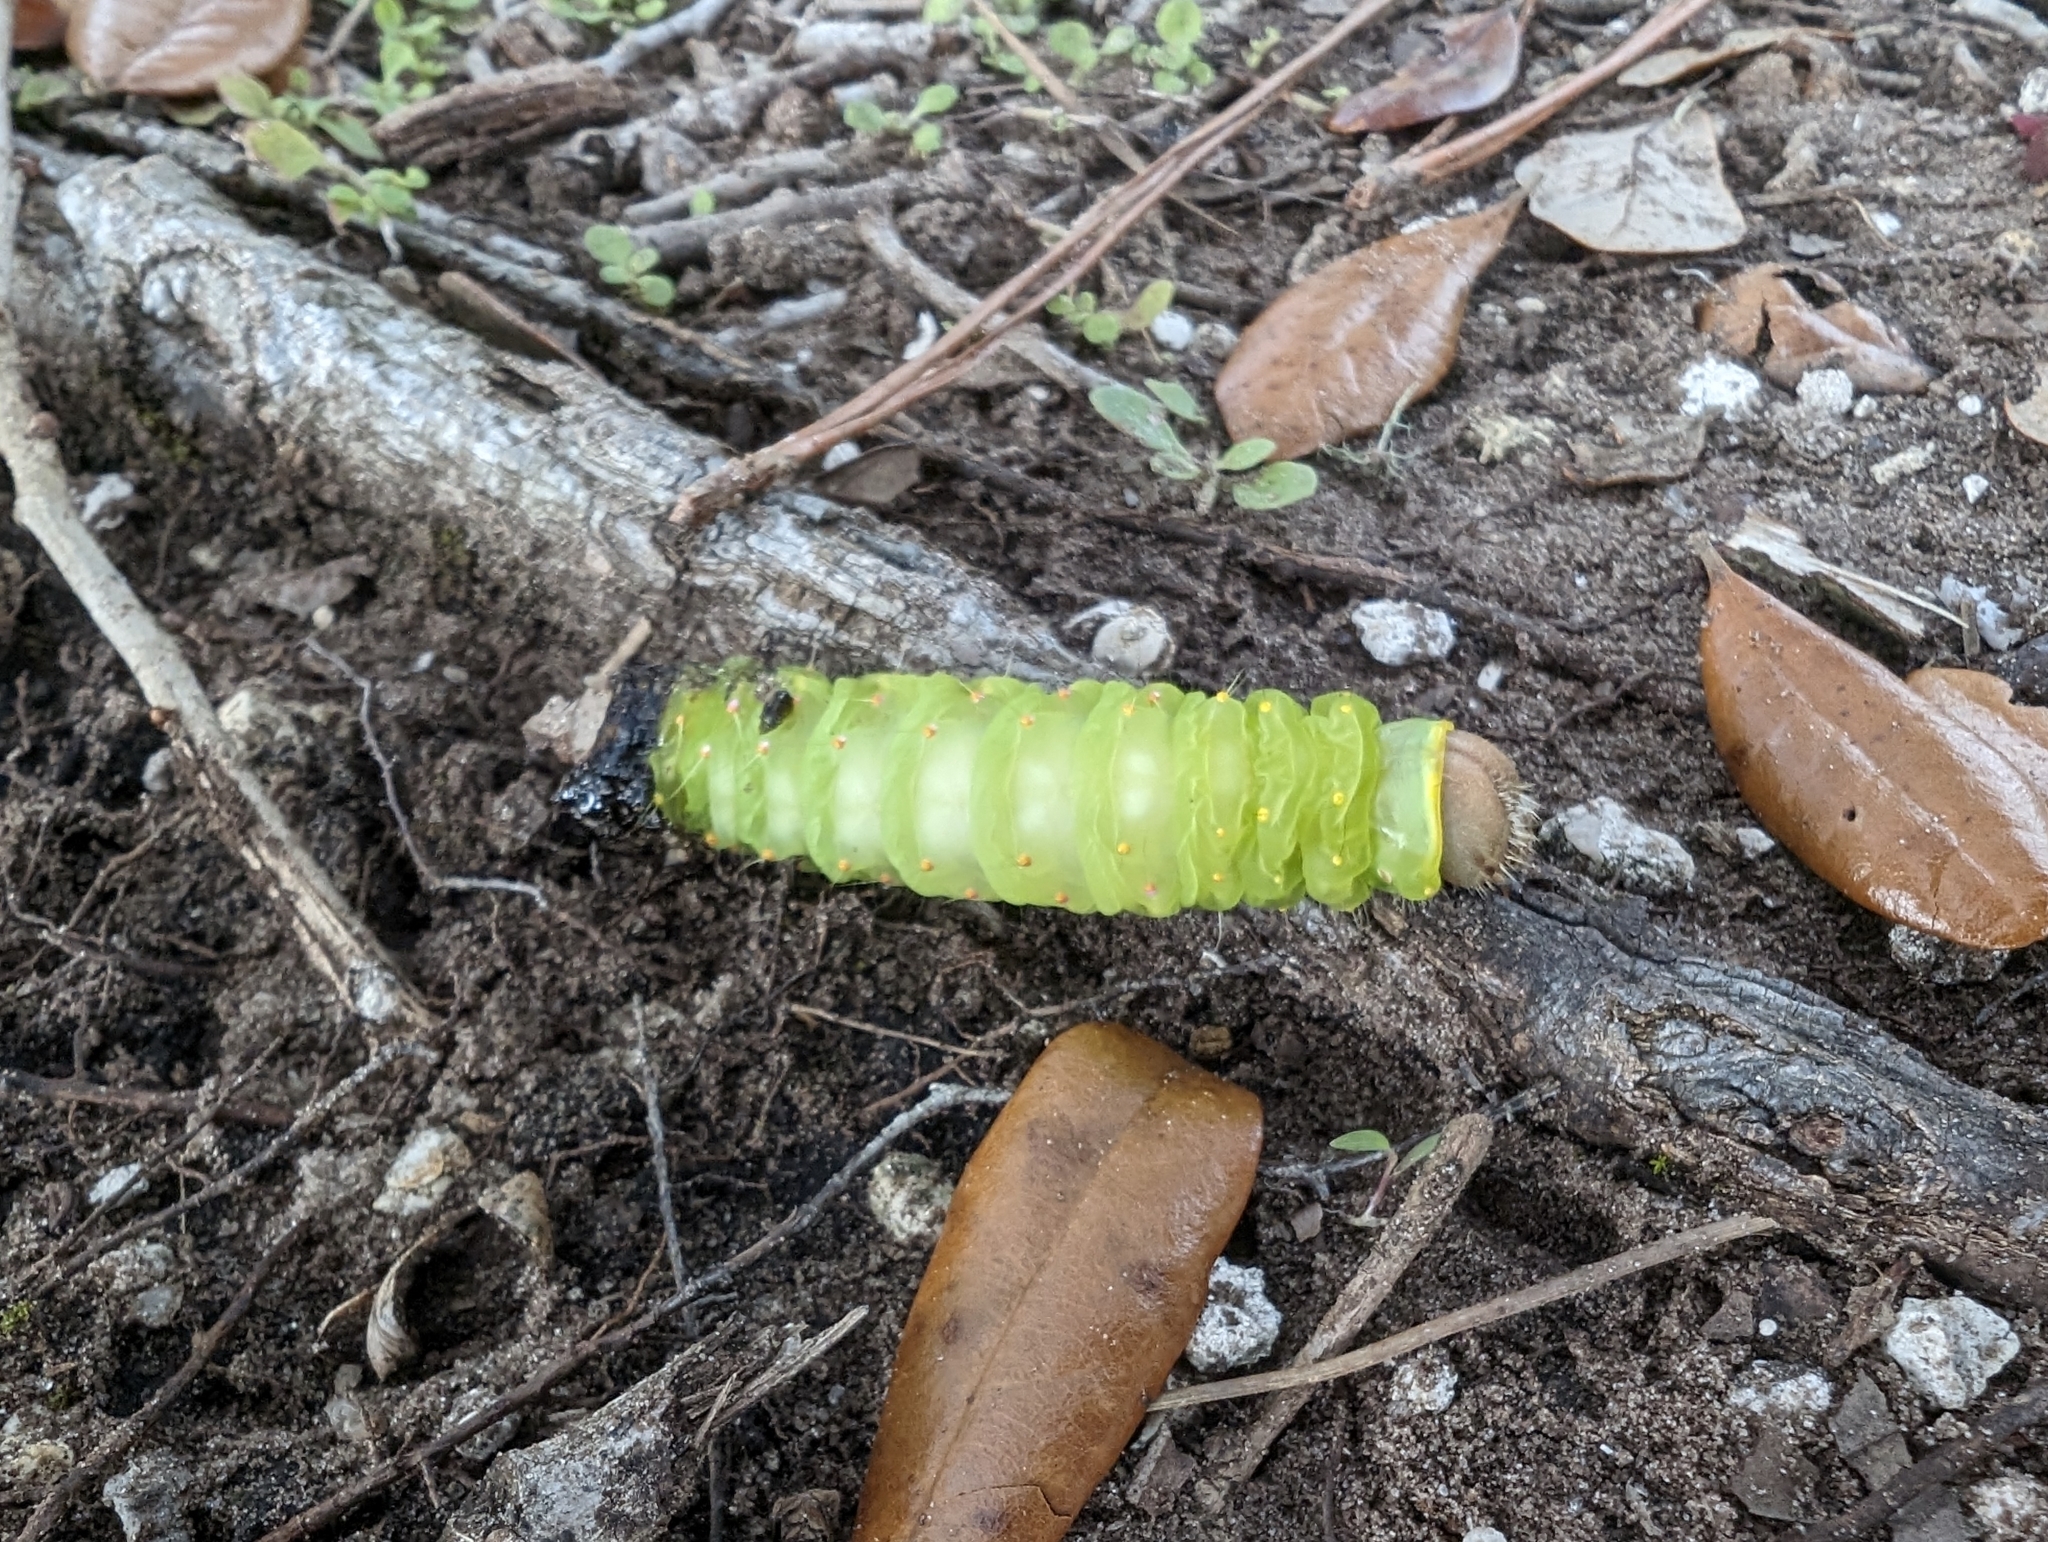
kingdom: Animalia
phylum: Arthropoda
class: Insecta
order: Lepidoptera
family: Saturniidae
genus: Antheraea
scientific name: Antheraea polyphemus
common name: Polyphemus moth
